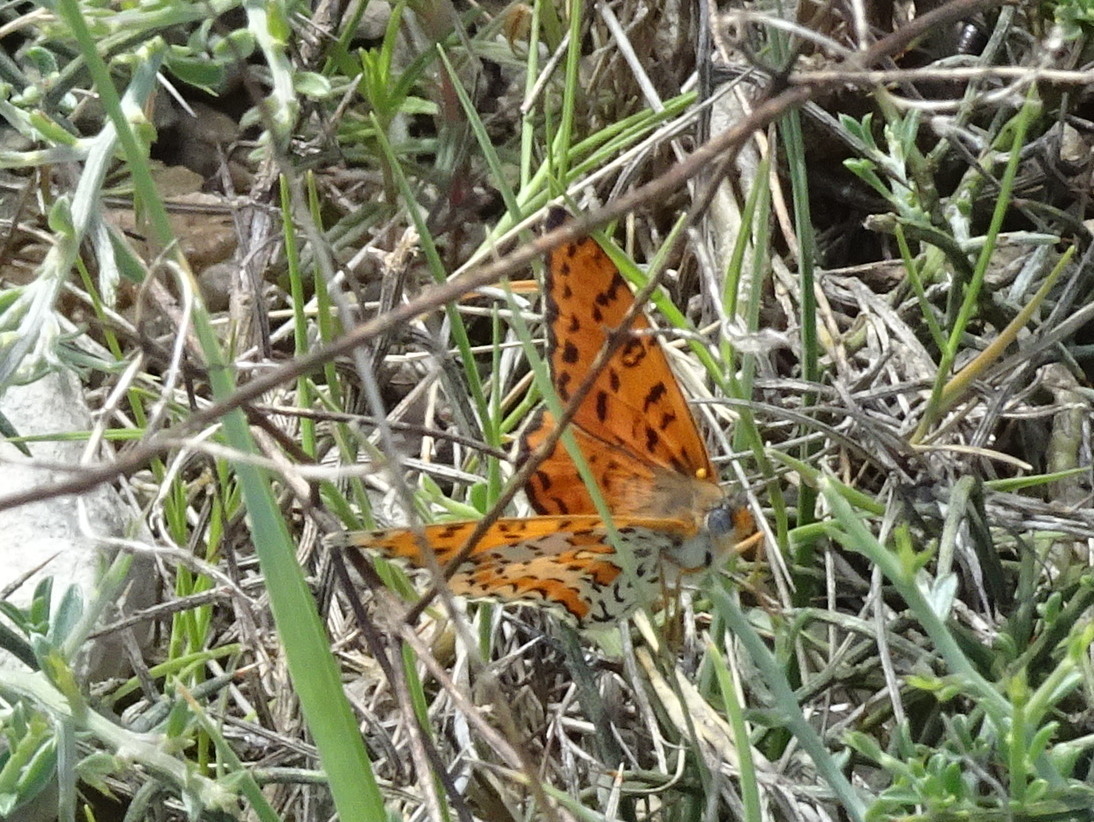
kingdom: Animalia
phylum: Arthropoda
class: Insecta
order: Lepidoptera
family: Nymphalidae
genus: Melitaea
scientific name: Melitaea didyma
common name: Spotted fritillary
